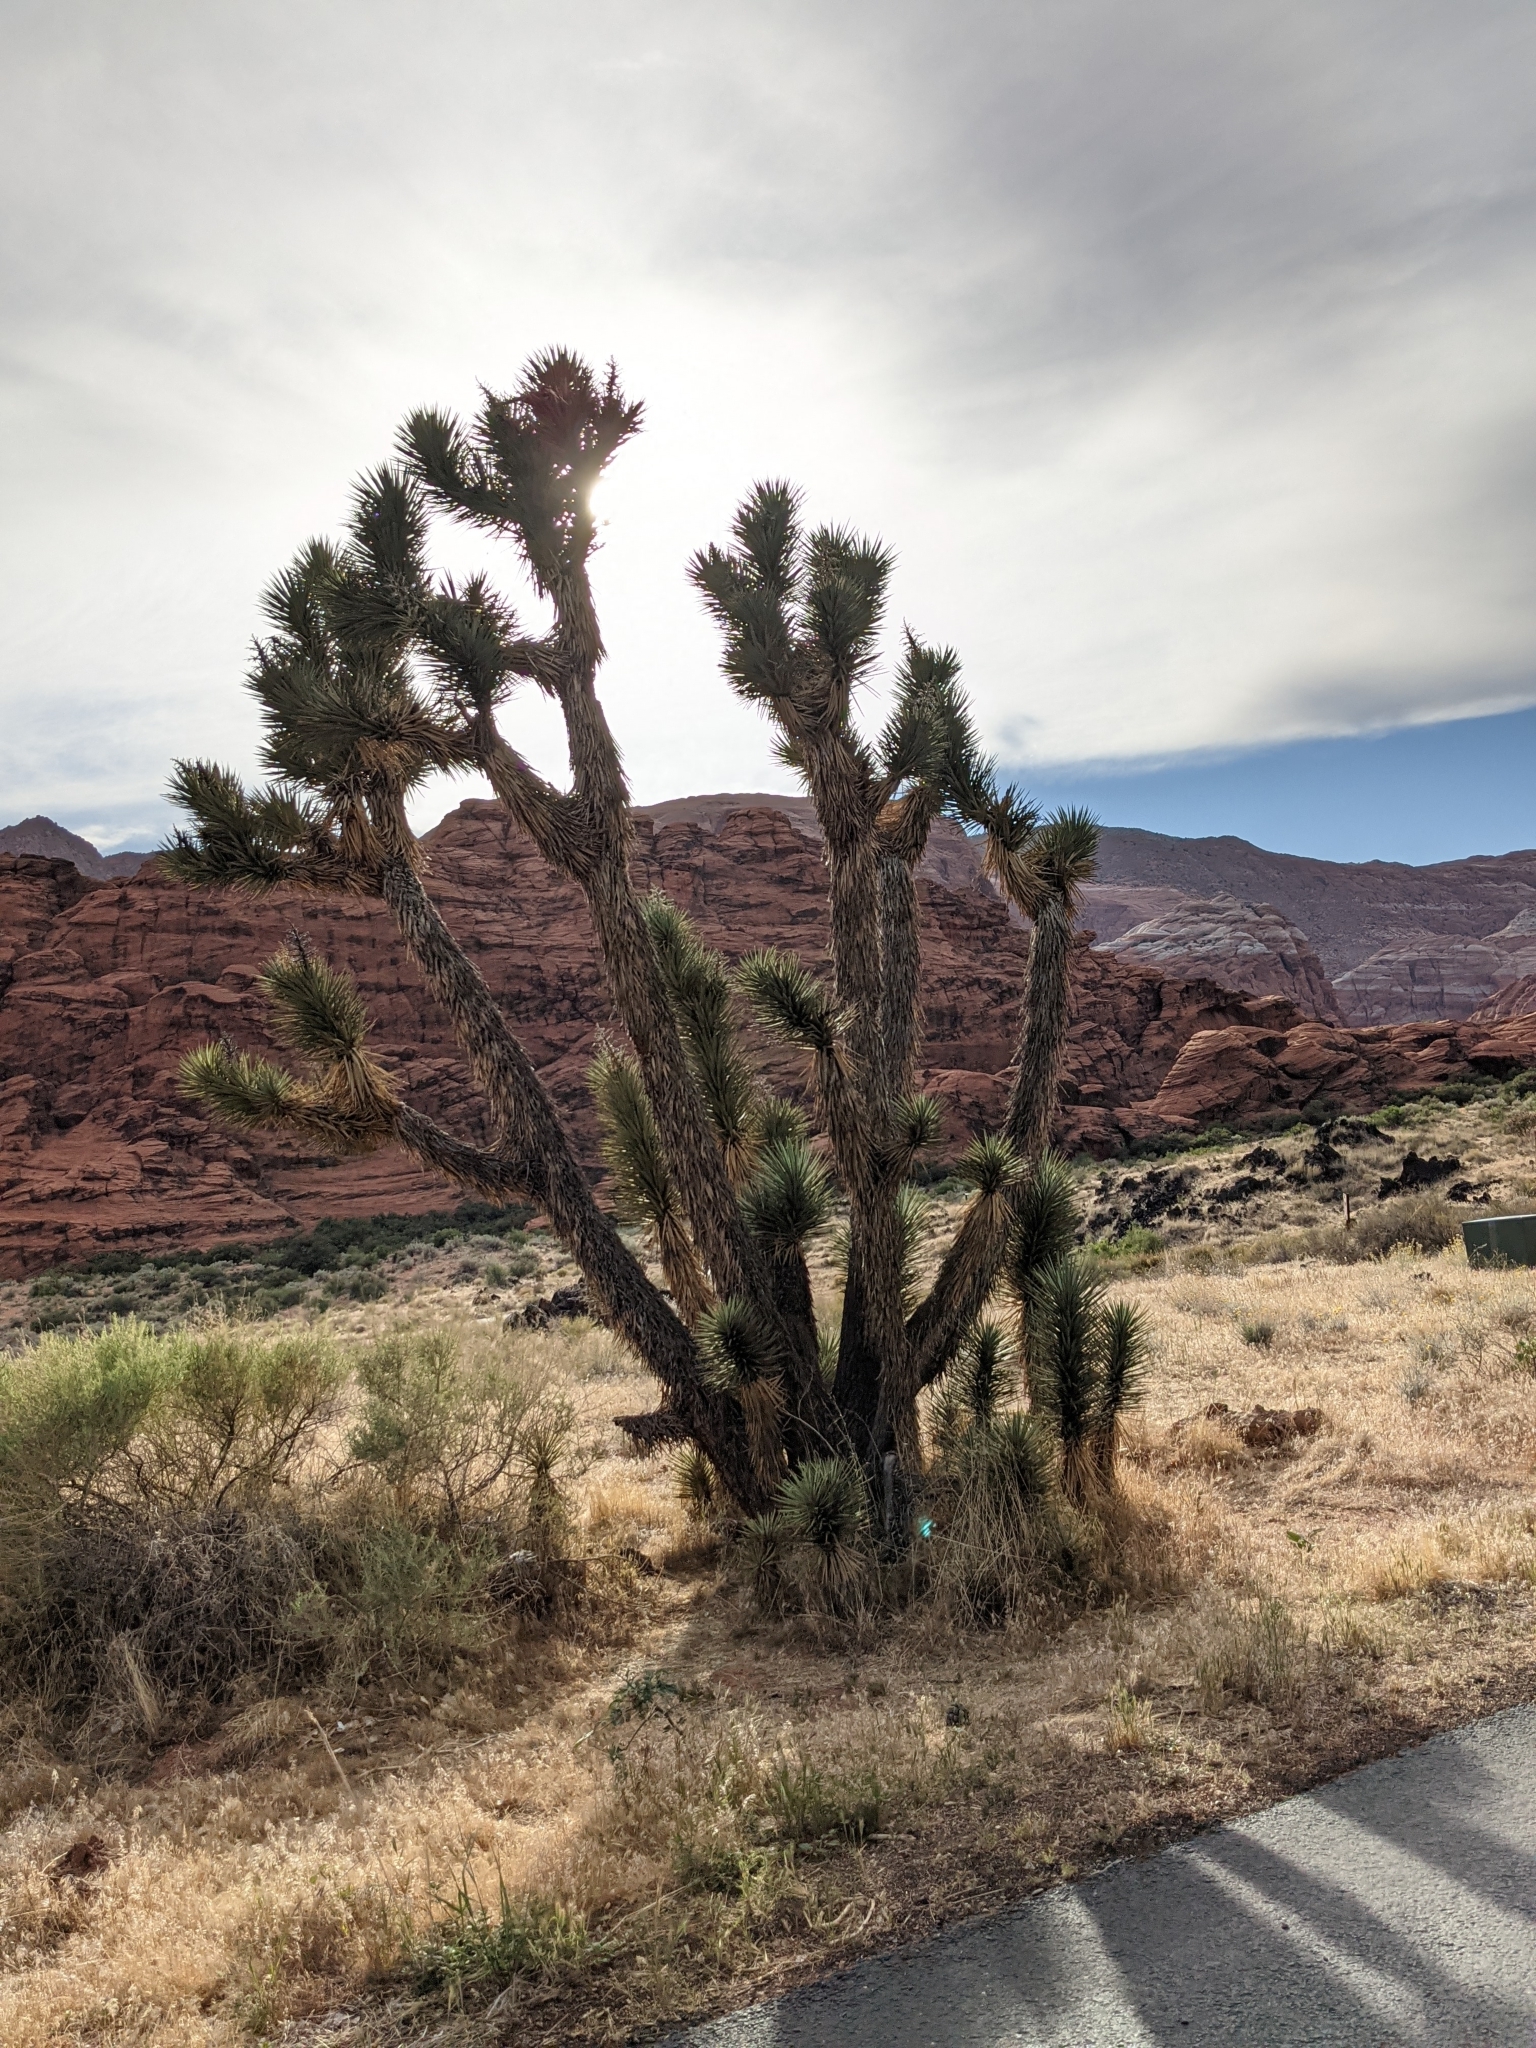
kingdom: Plantae
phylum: Tracheophyta
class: Liliopsida
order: Asparagales
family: Asparagaceae
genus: Yucca
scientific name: Yucca brevifolia
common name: Joshua tree
